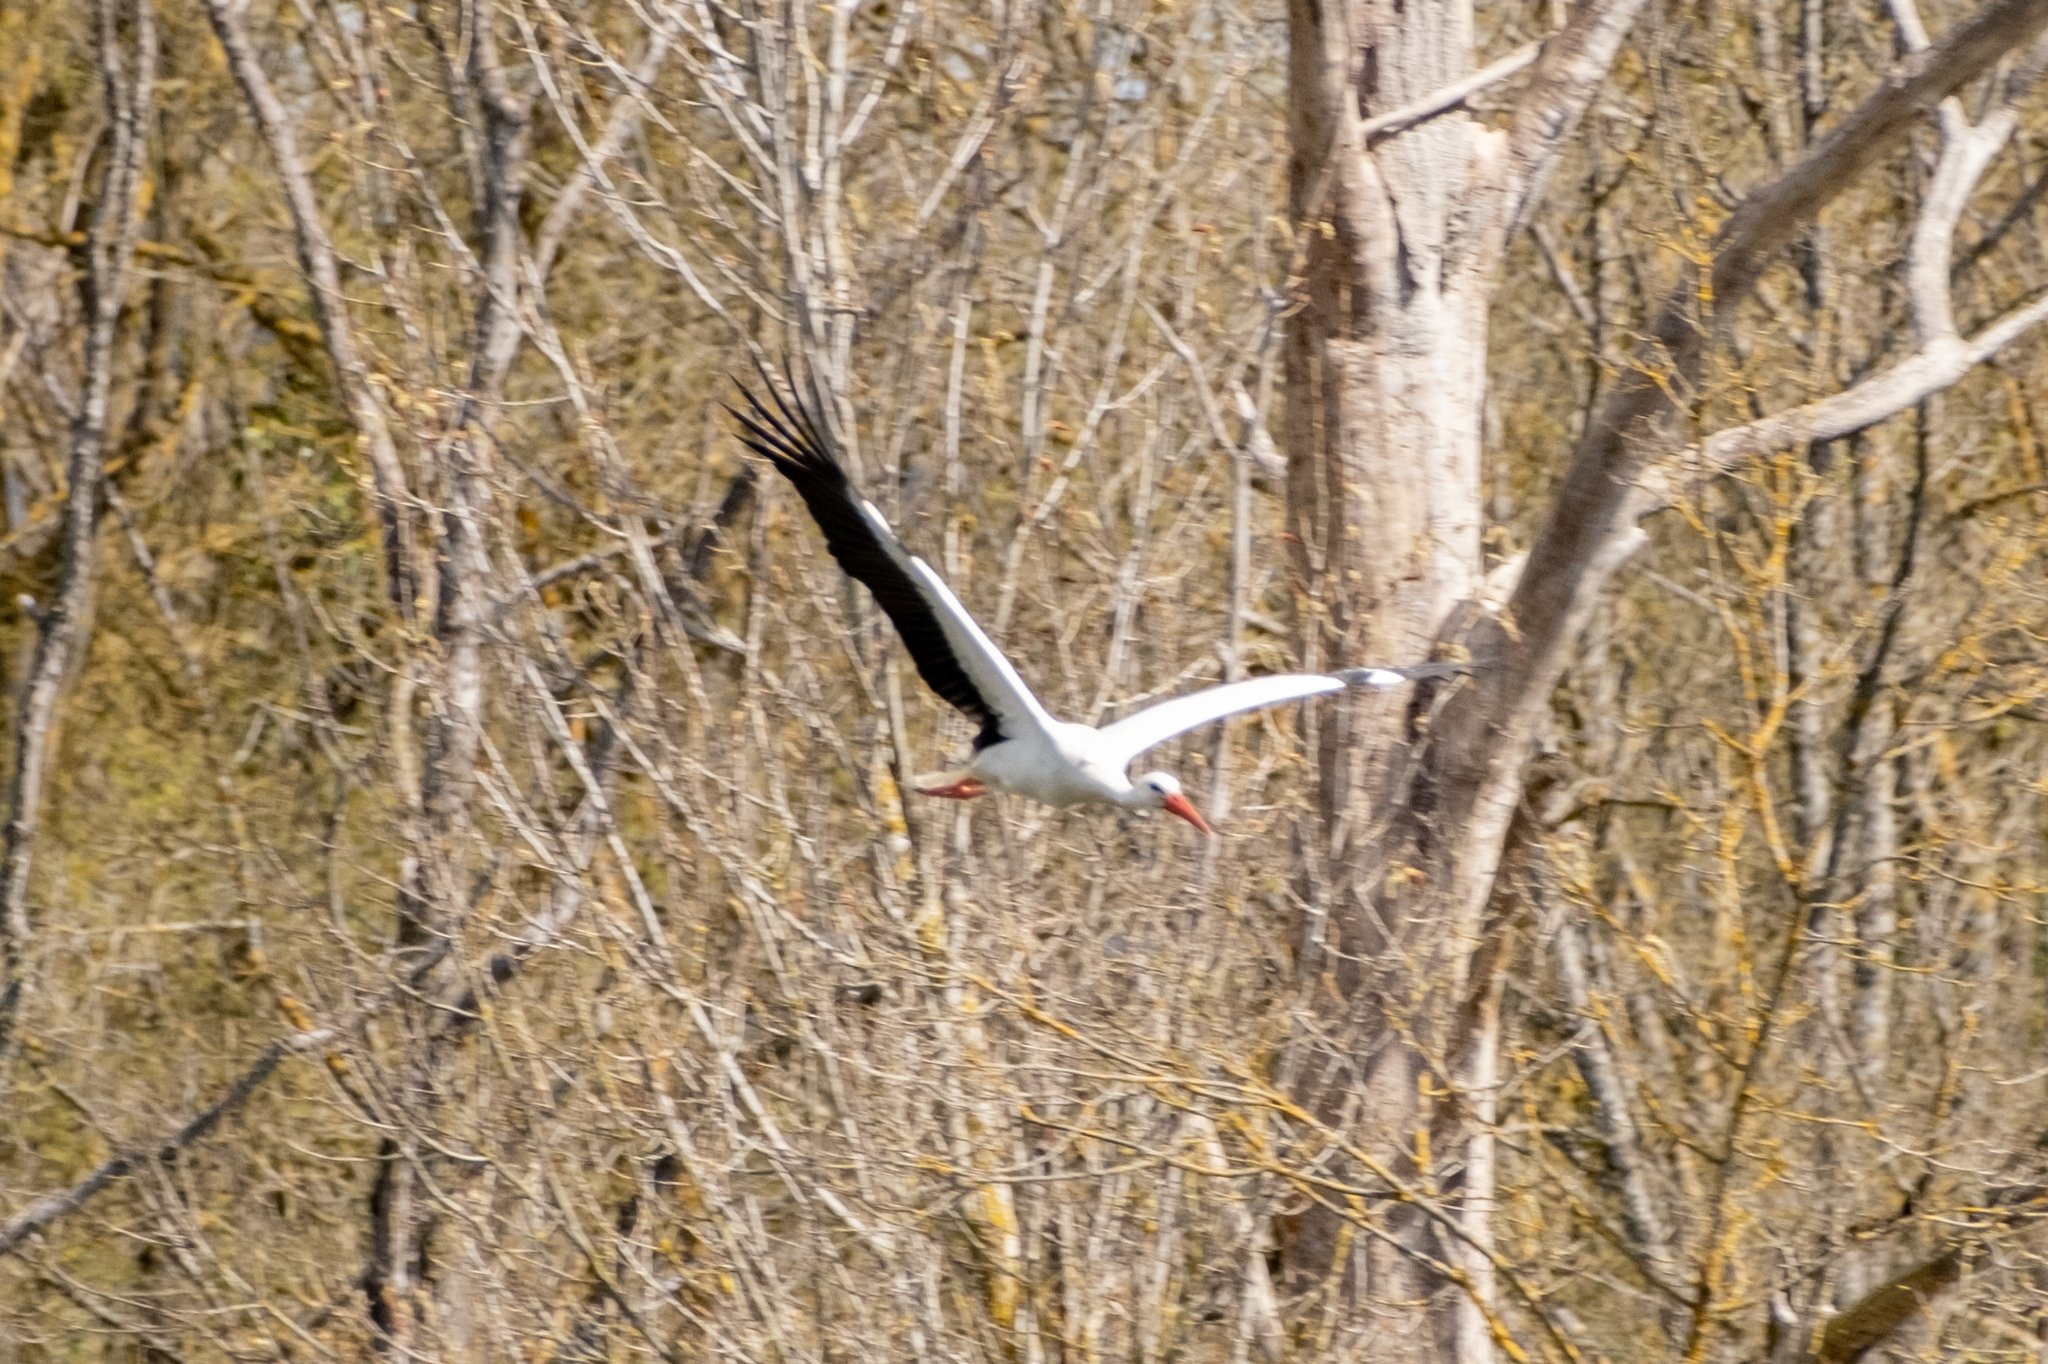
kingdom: Animalia
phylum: Chordata
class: Aves
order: Ciconiiformes
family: Ciconiidae
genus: Ciconia
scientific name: Ciconia ciconia
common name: White stork
